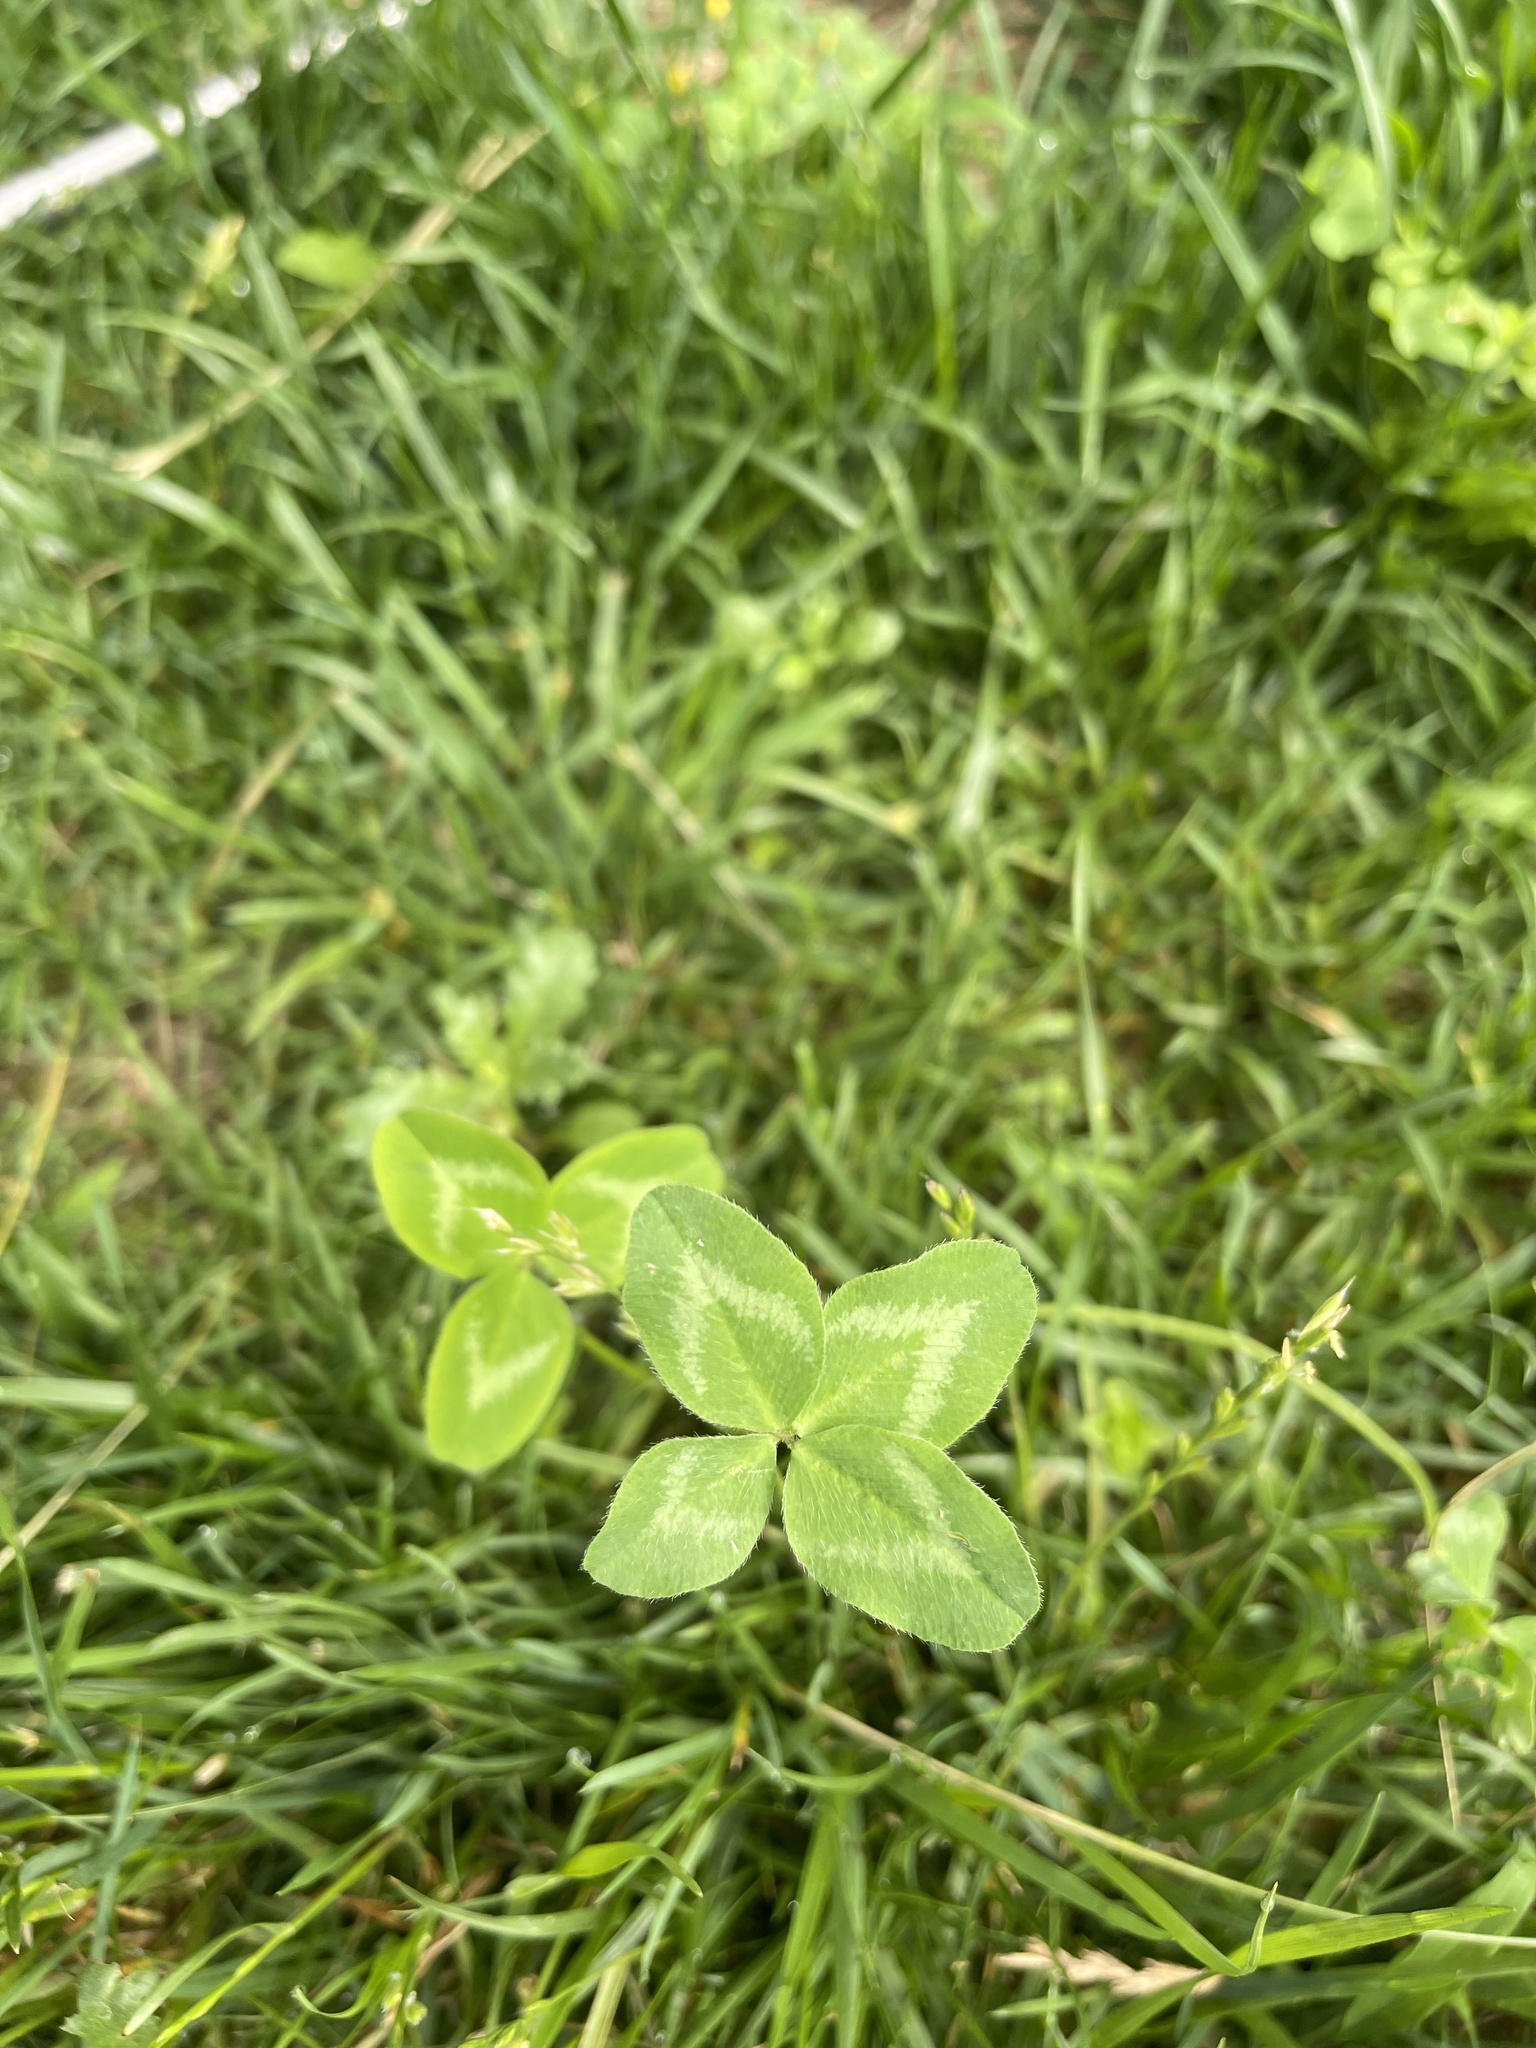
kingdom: Plantae
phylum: Tracheophyta
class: Magnoliopsida
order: Fabales
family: Fabaceae
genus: Trifolium
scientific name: Trifolium pratense
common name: Red clover
